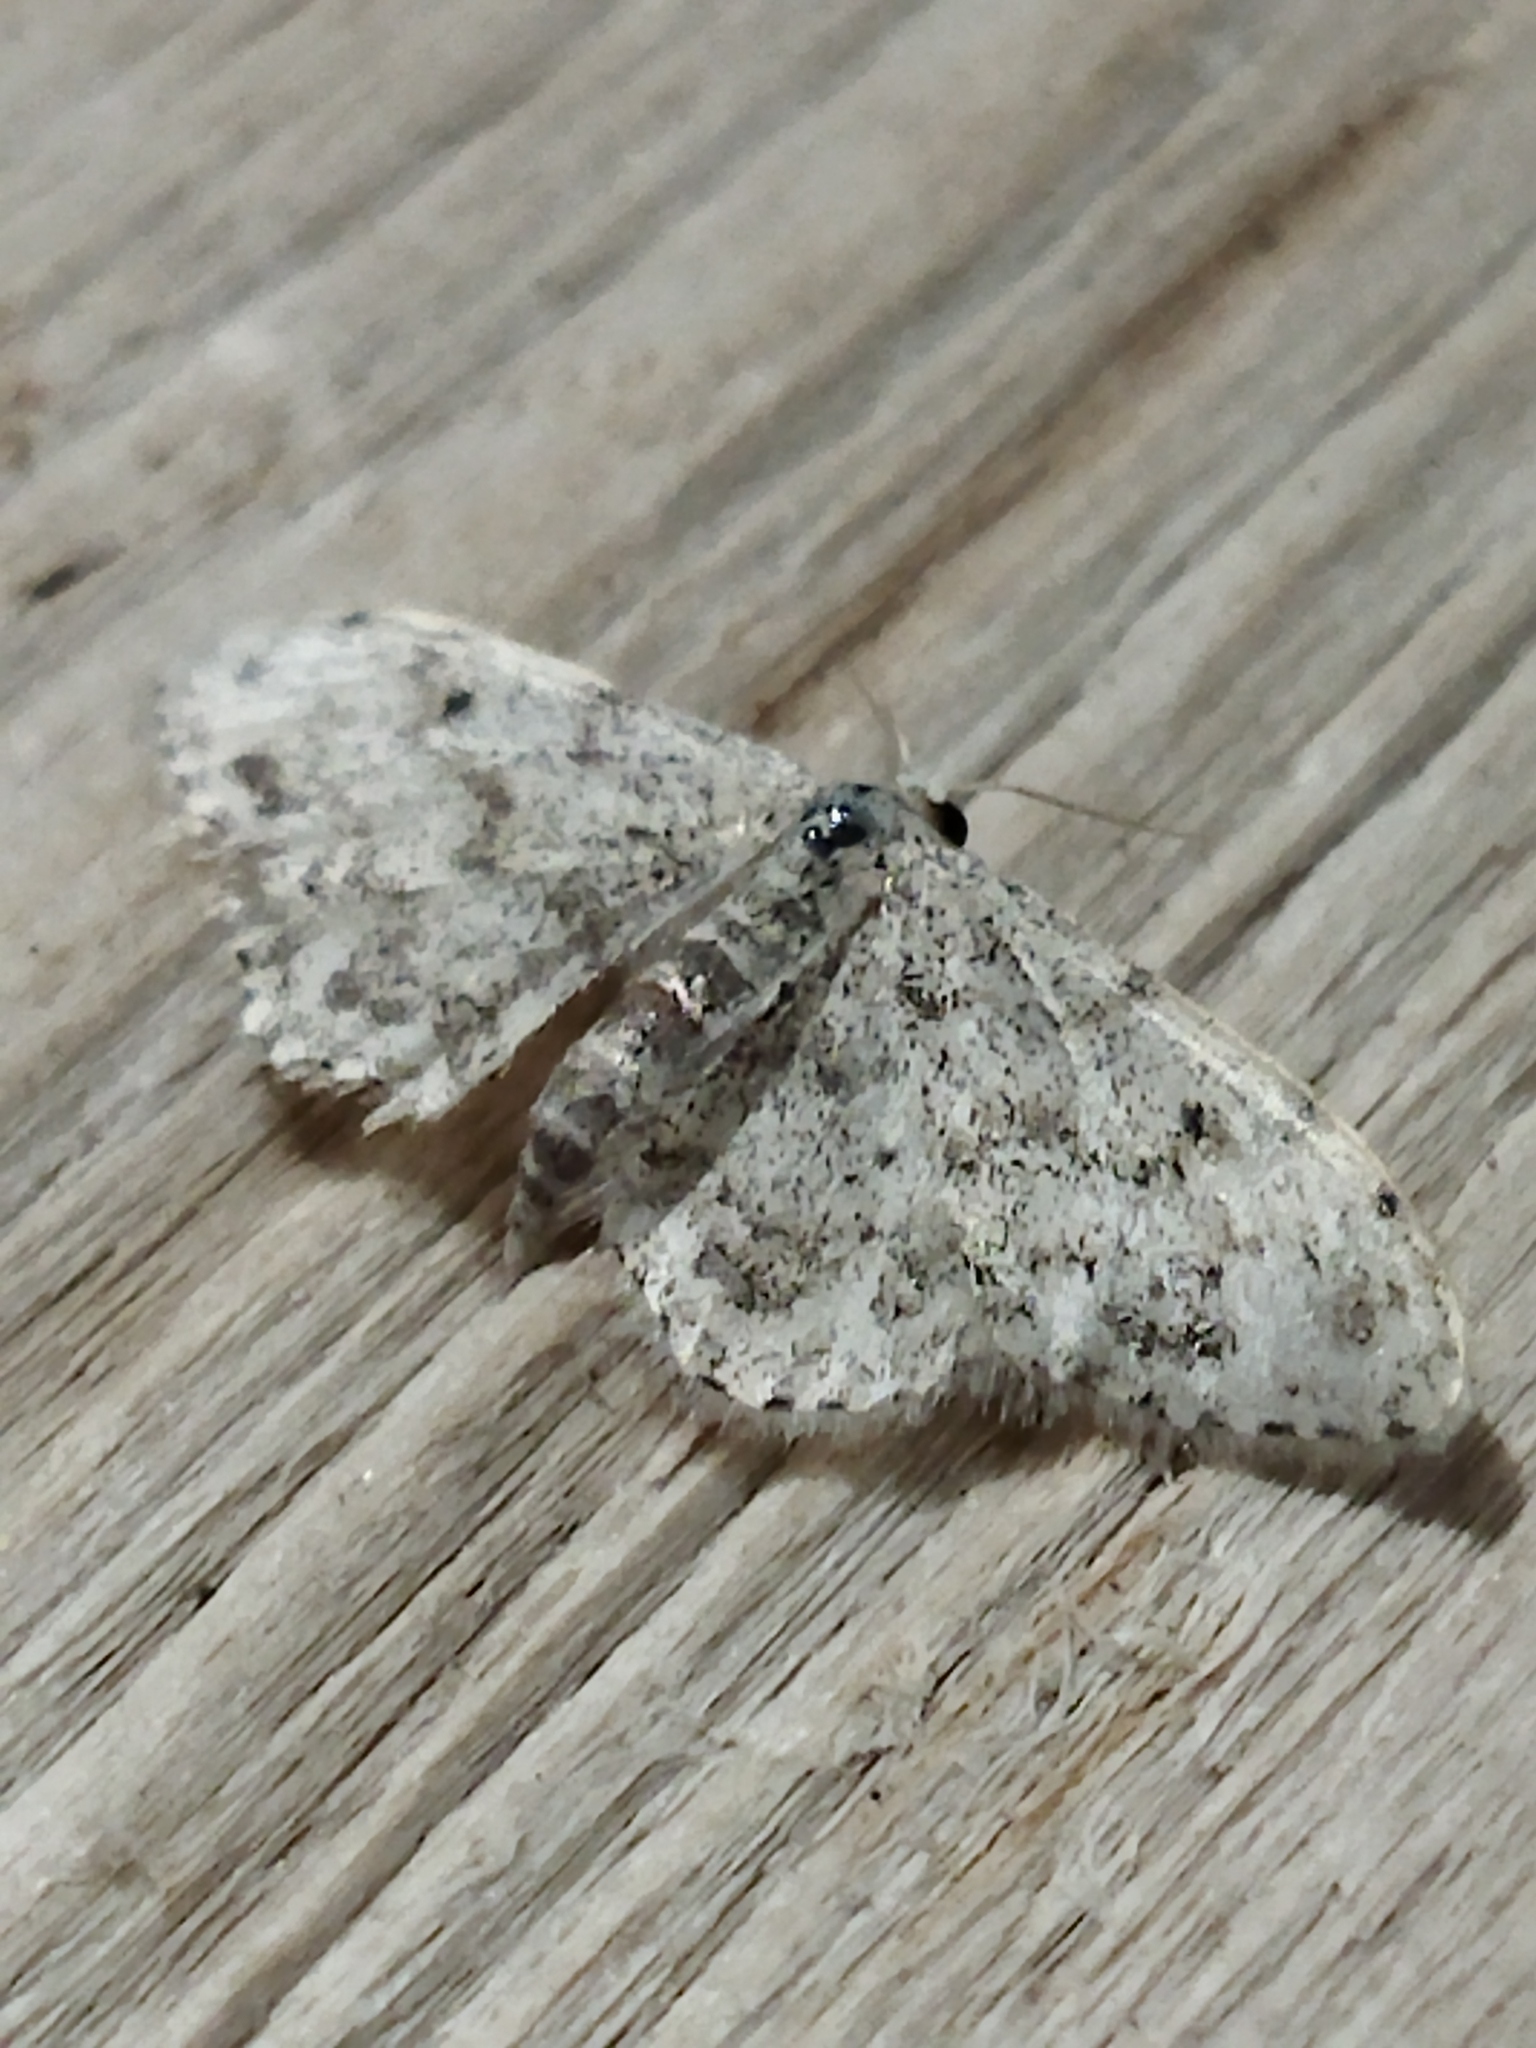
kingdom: Animalia
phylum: Arthropoda
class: Insecta
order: Lepidoptera
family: Geometridae
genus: Idaea
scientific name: Idaea camparia
